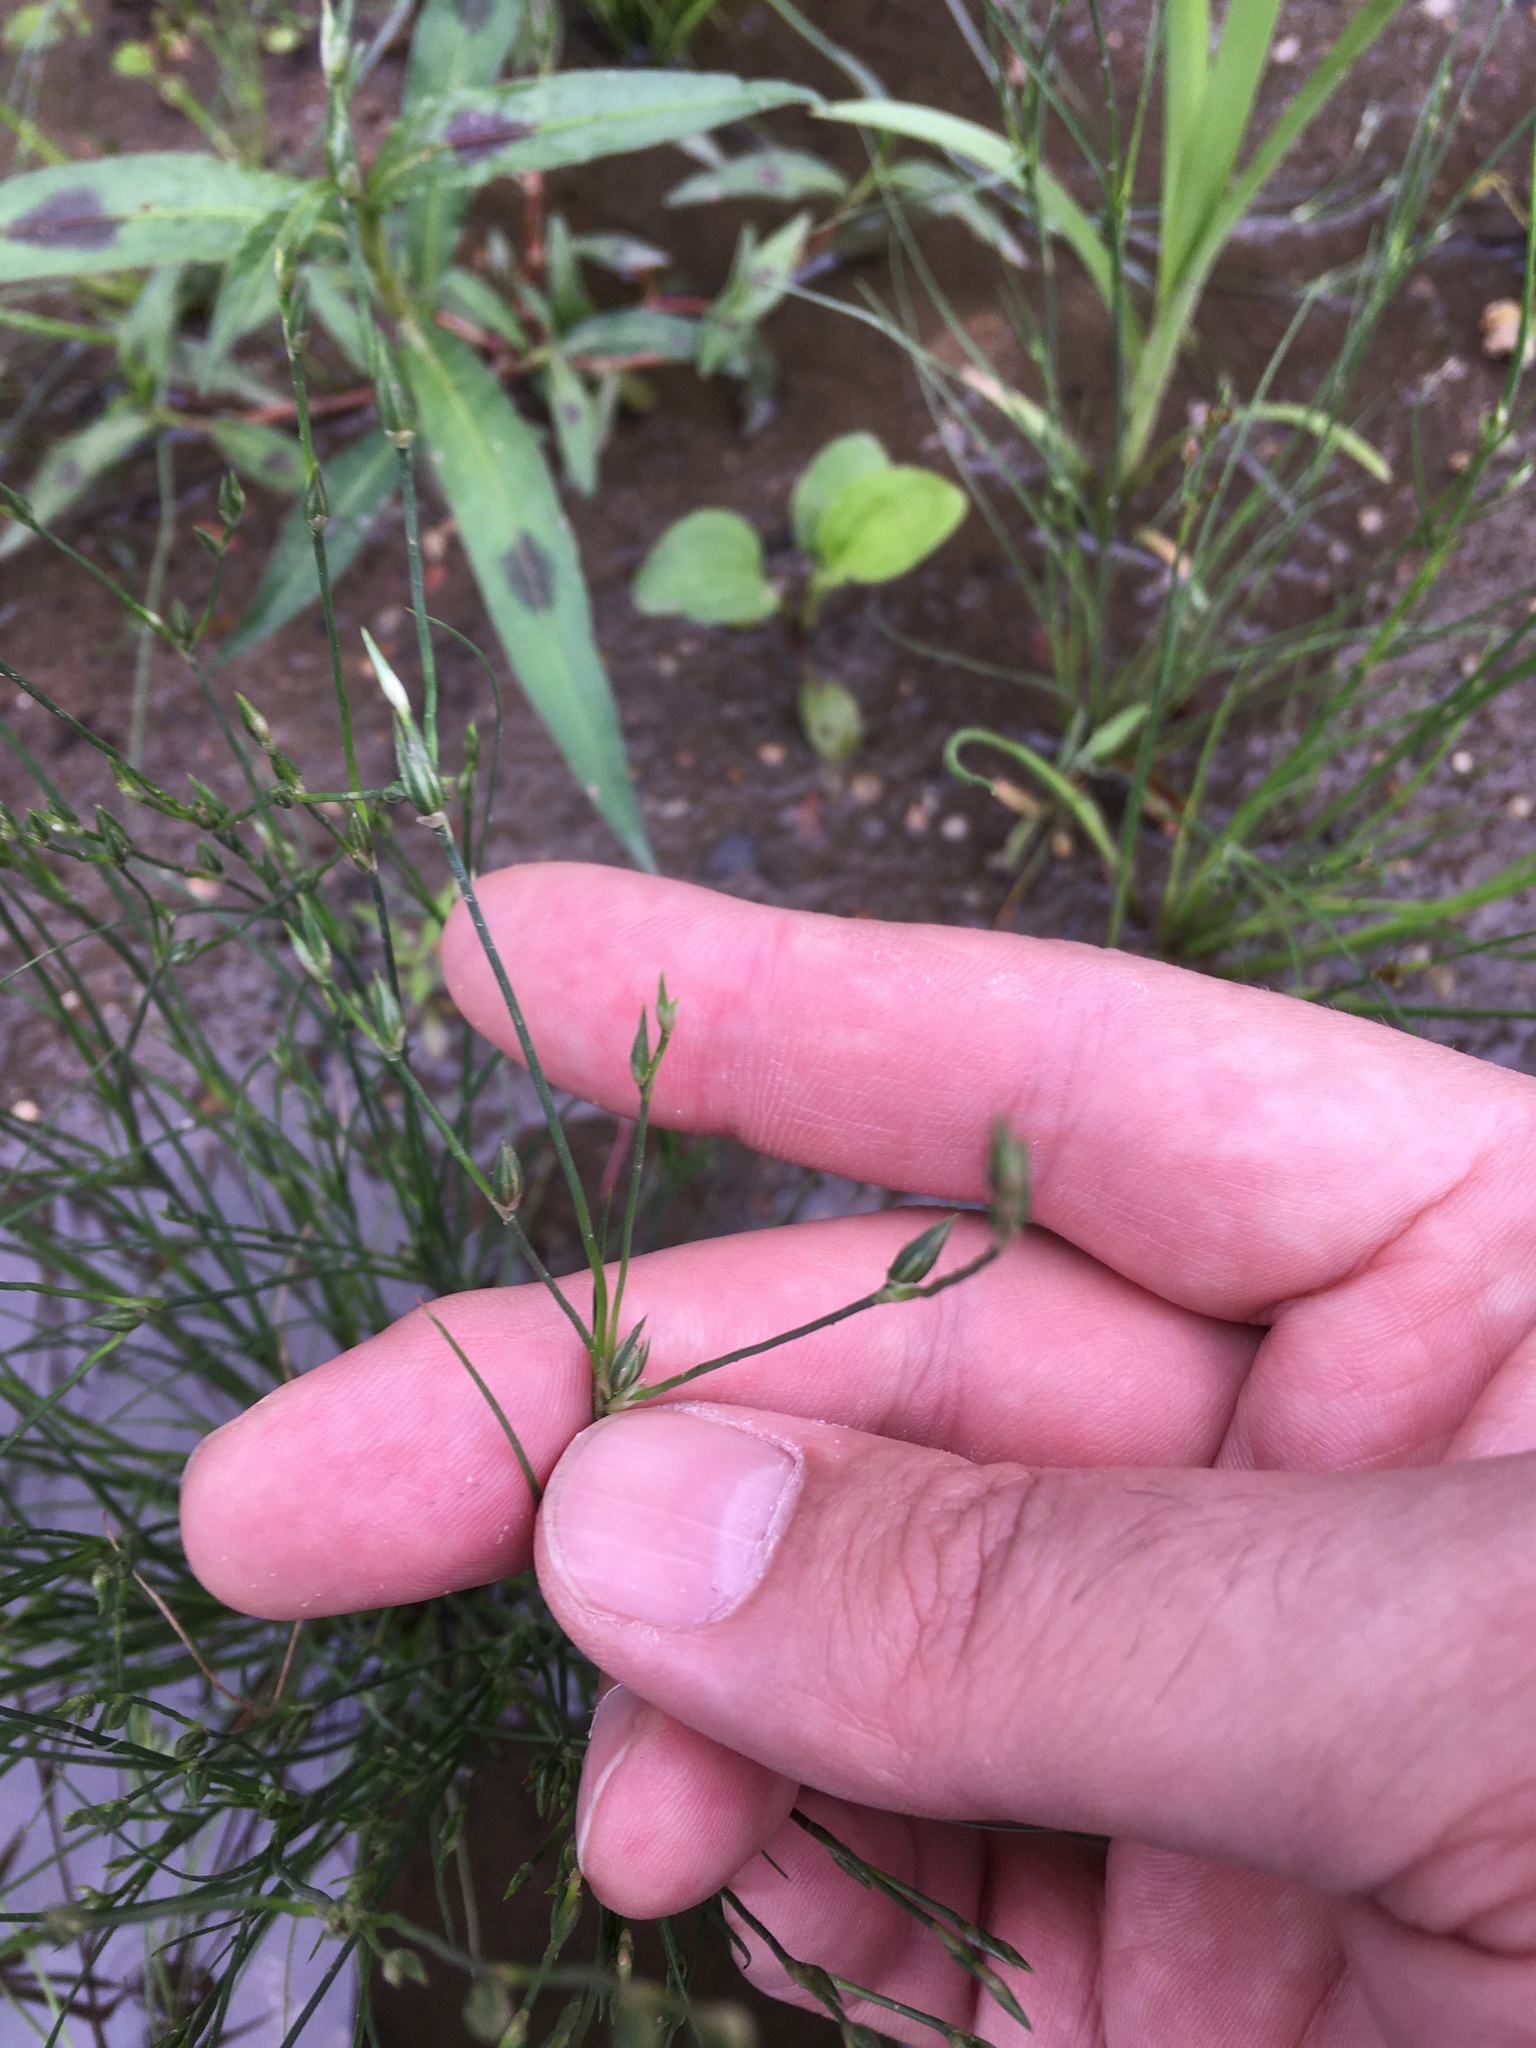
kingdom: Plantae
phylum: Tracheophyta
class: Liliopsida
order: Poales
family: Juncaceae
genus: Juncus
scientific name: Juncus bufonius
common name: Toad rush
